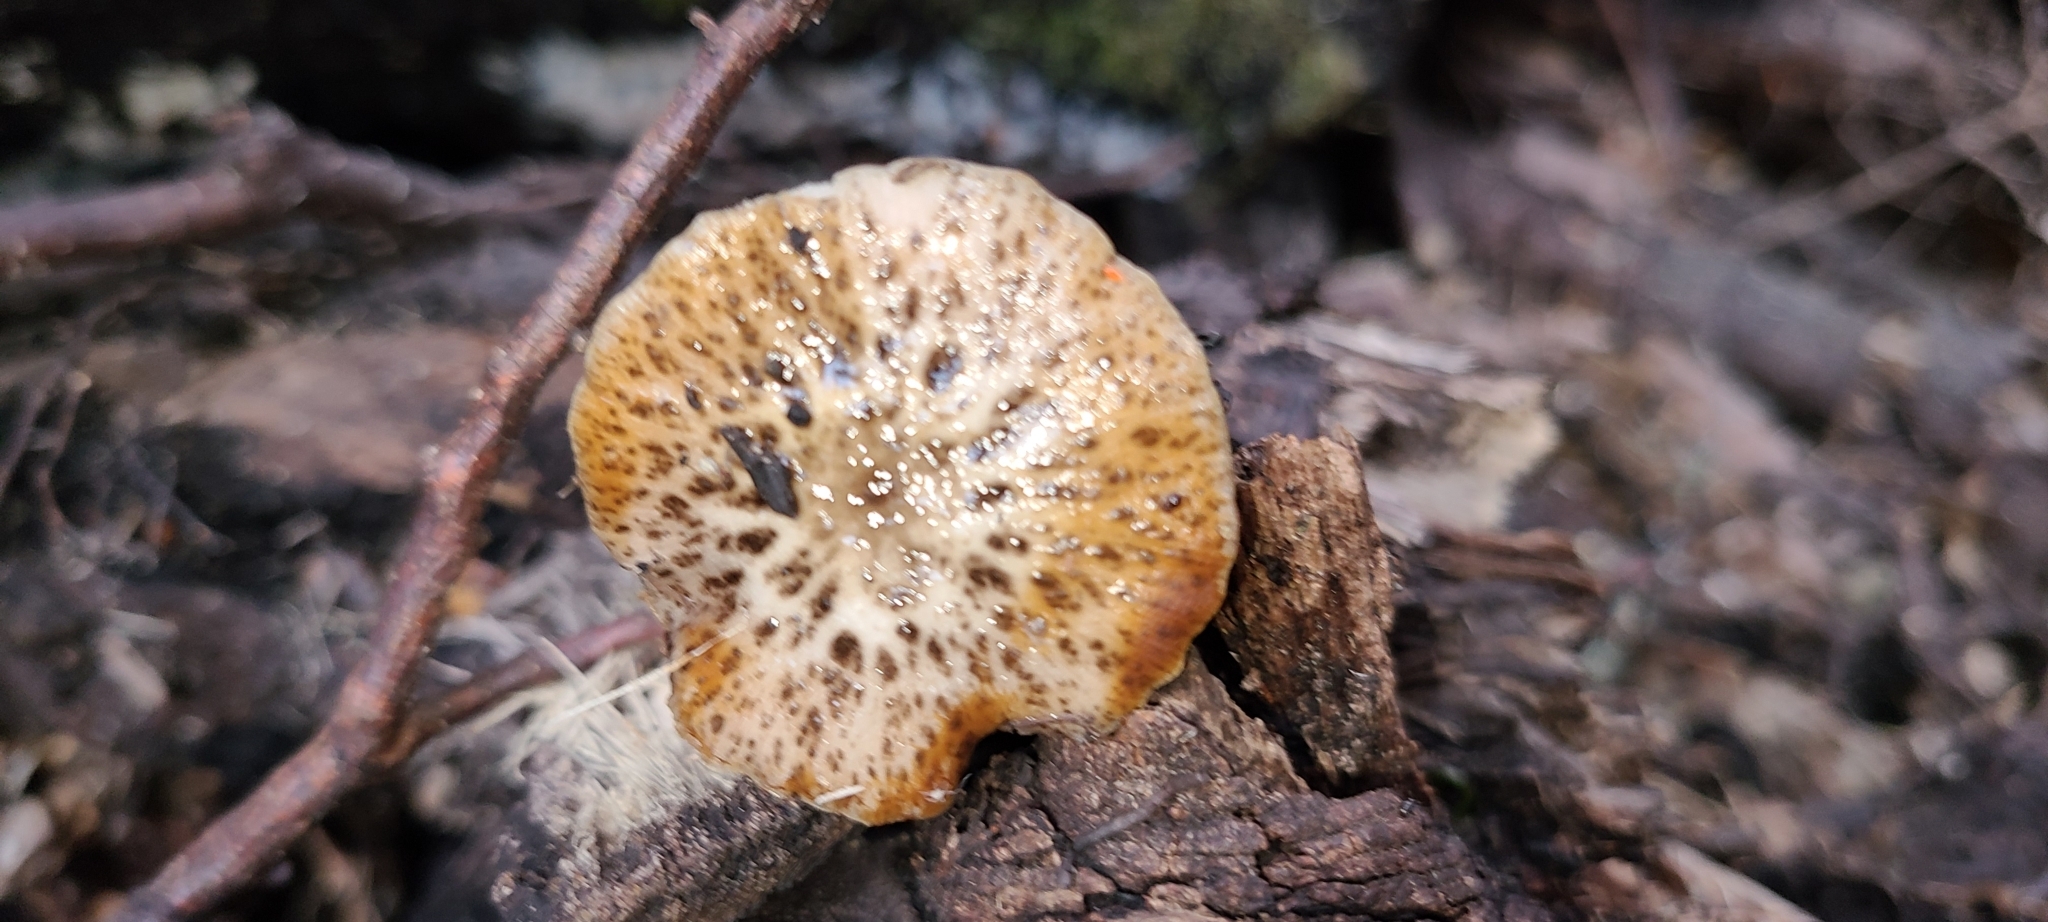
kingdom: Fungi
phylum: Basidiomycota
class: Agaricomycetes
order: Agaricales
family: Bolbitiaceae
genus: Bolbitius
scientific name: Bolbitius muscicola
